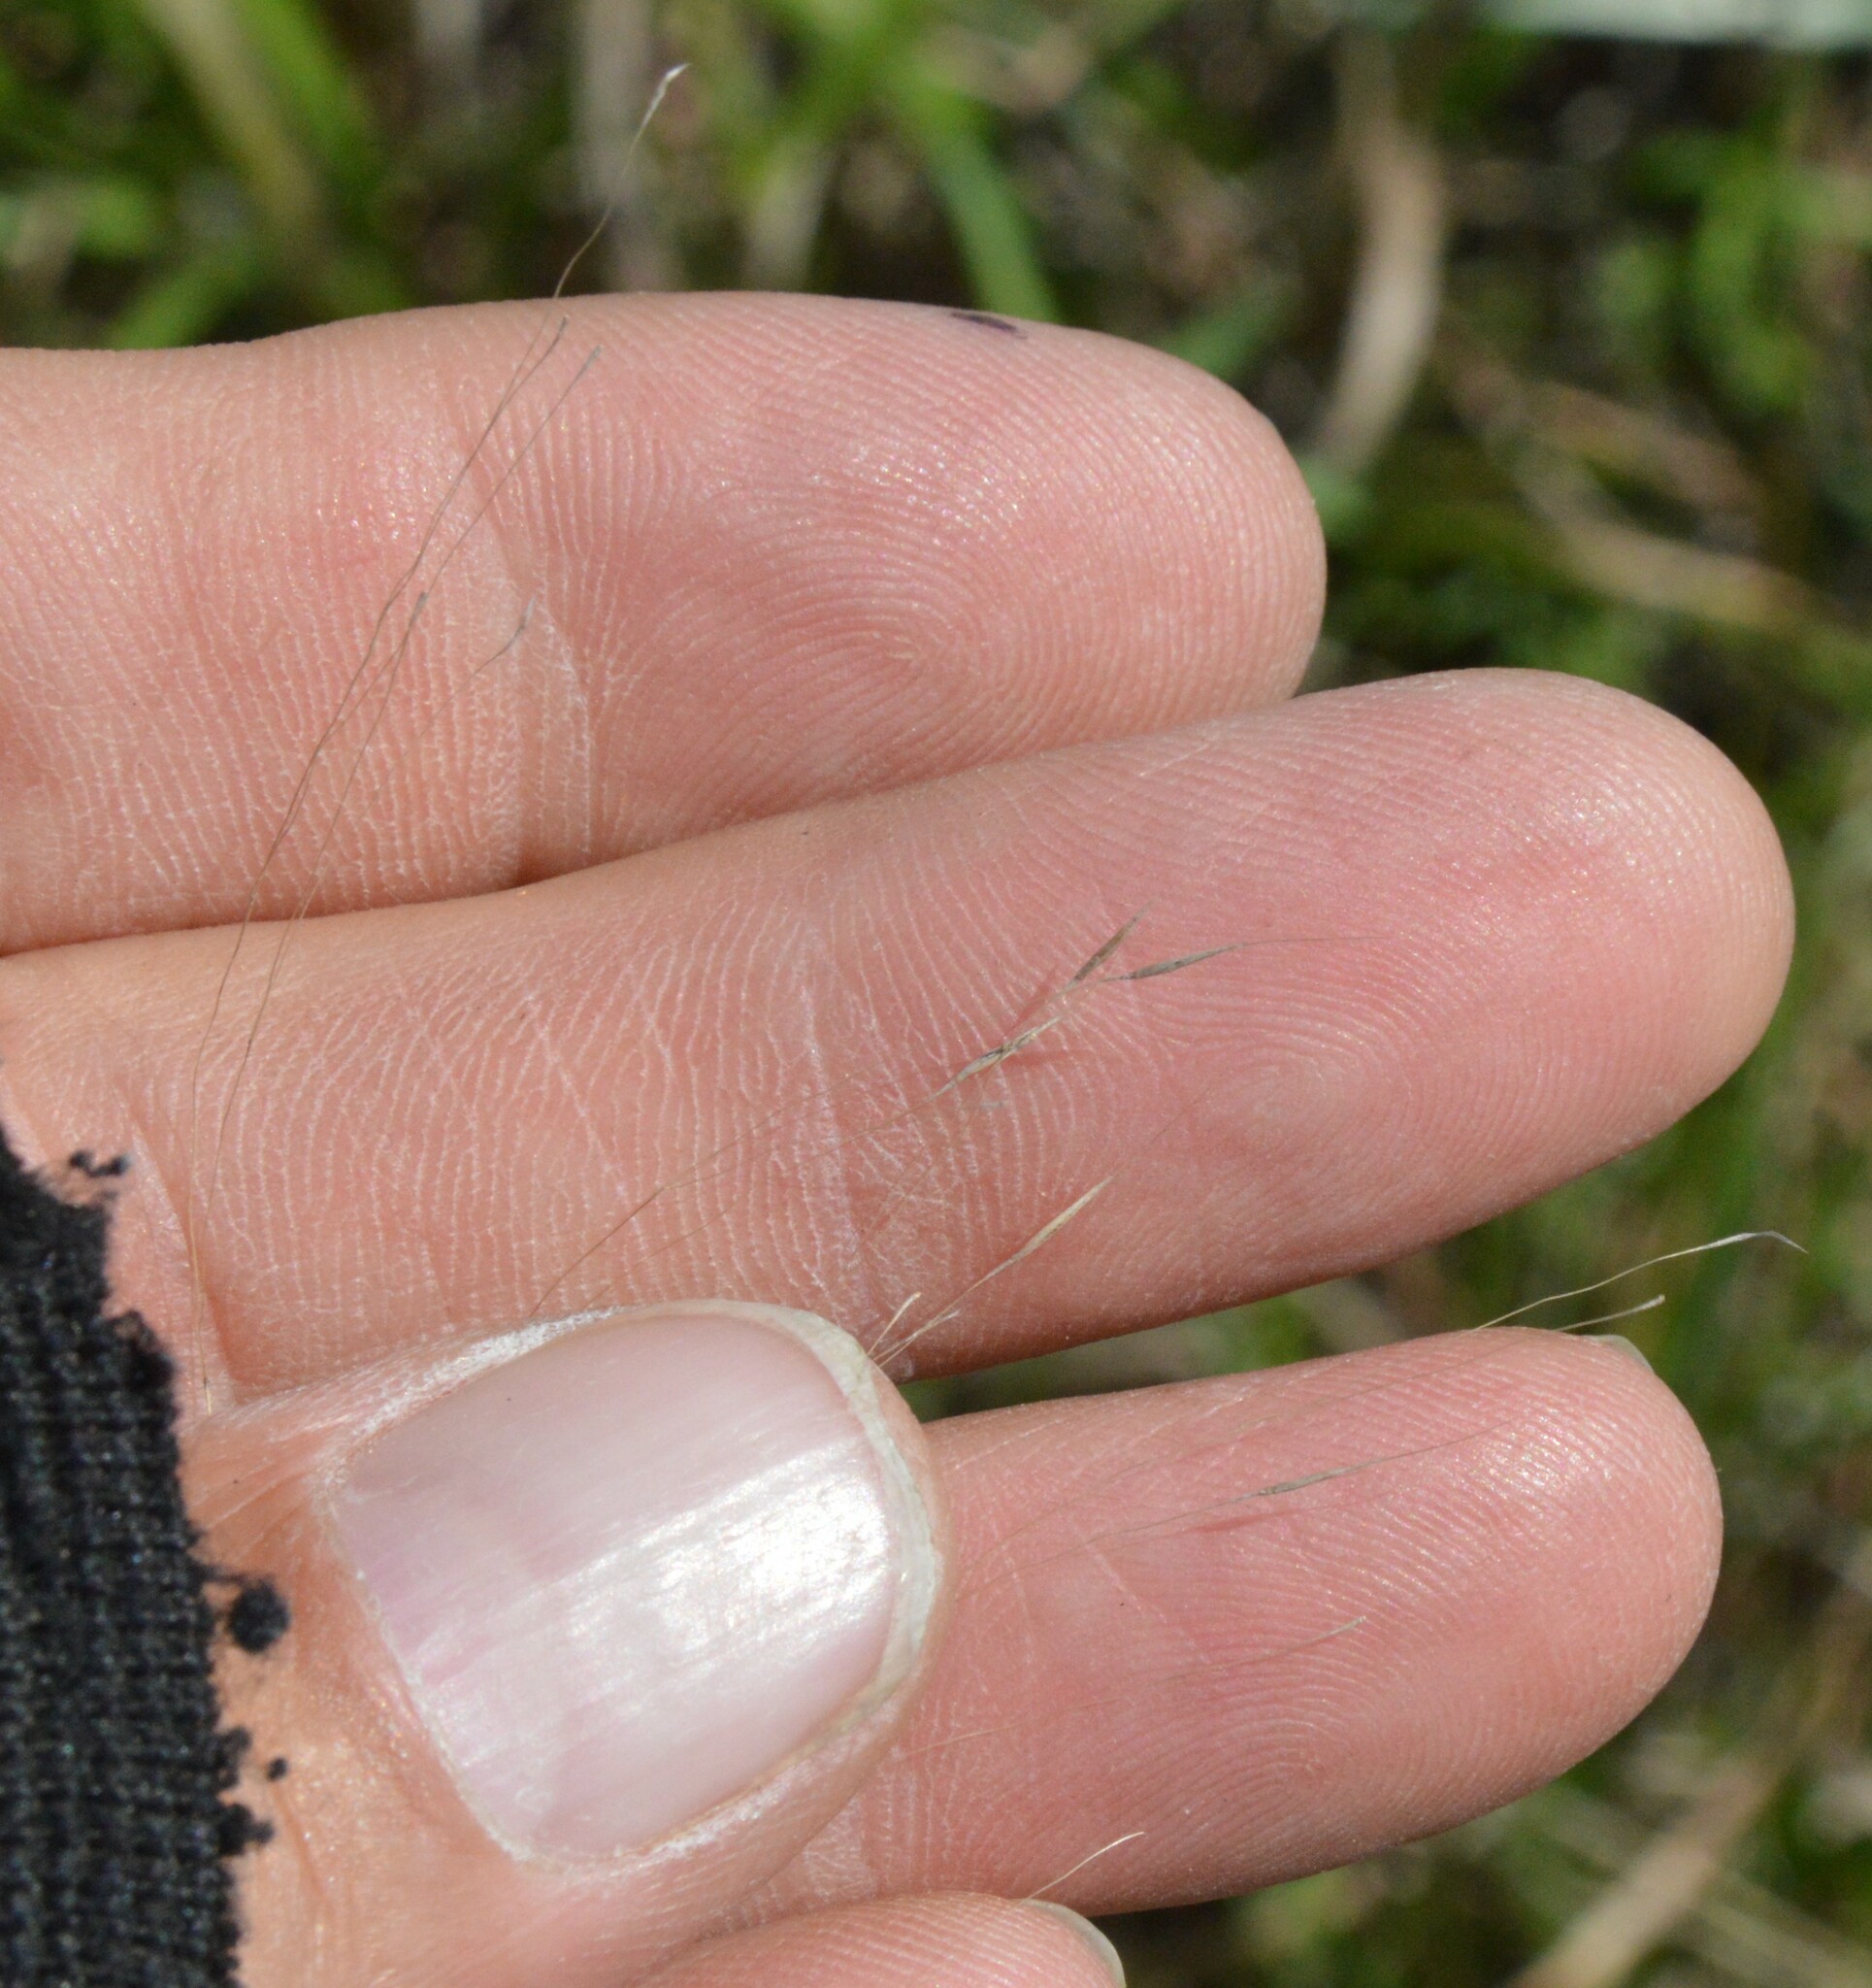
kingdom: Plantae
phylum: Tracheophyta
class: Liliopsida
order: Poales
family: Poaceae
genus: Muhlenbergia
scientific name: Muhlenbergia capillaris
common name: Purple grass
